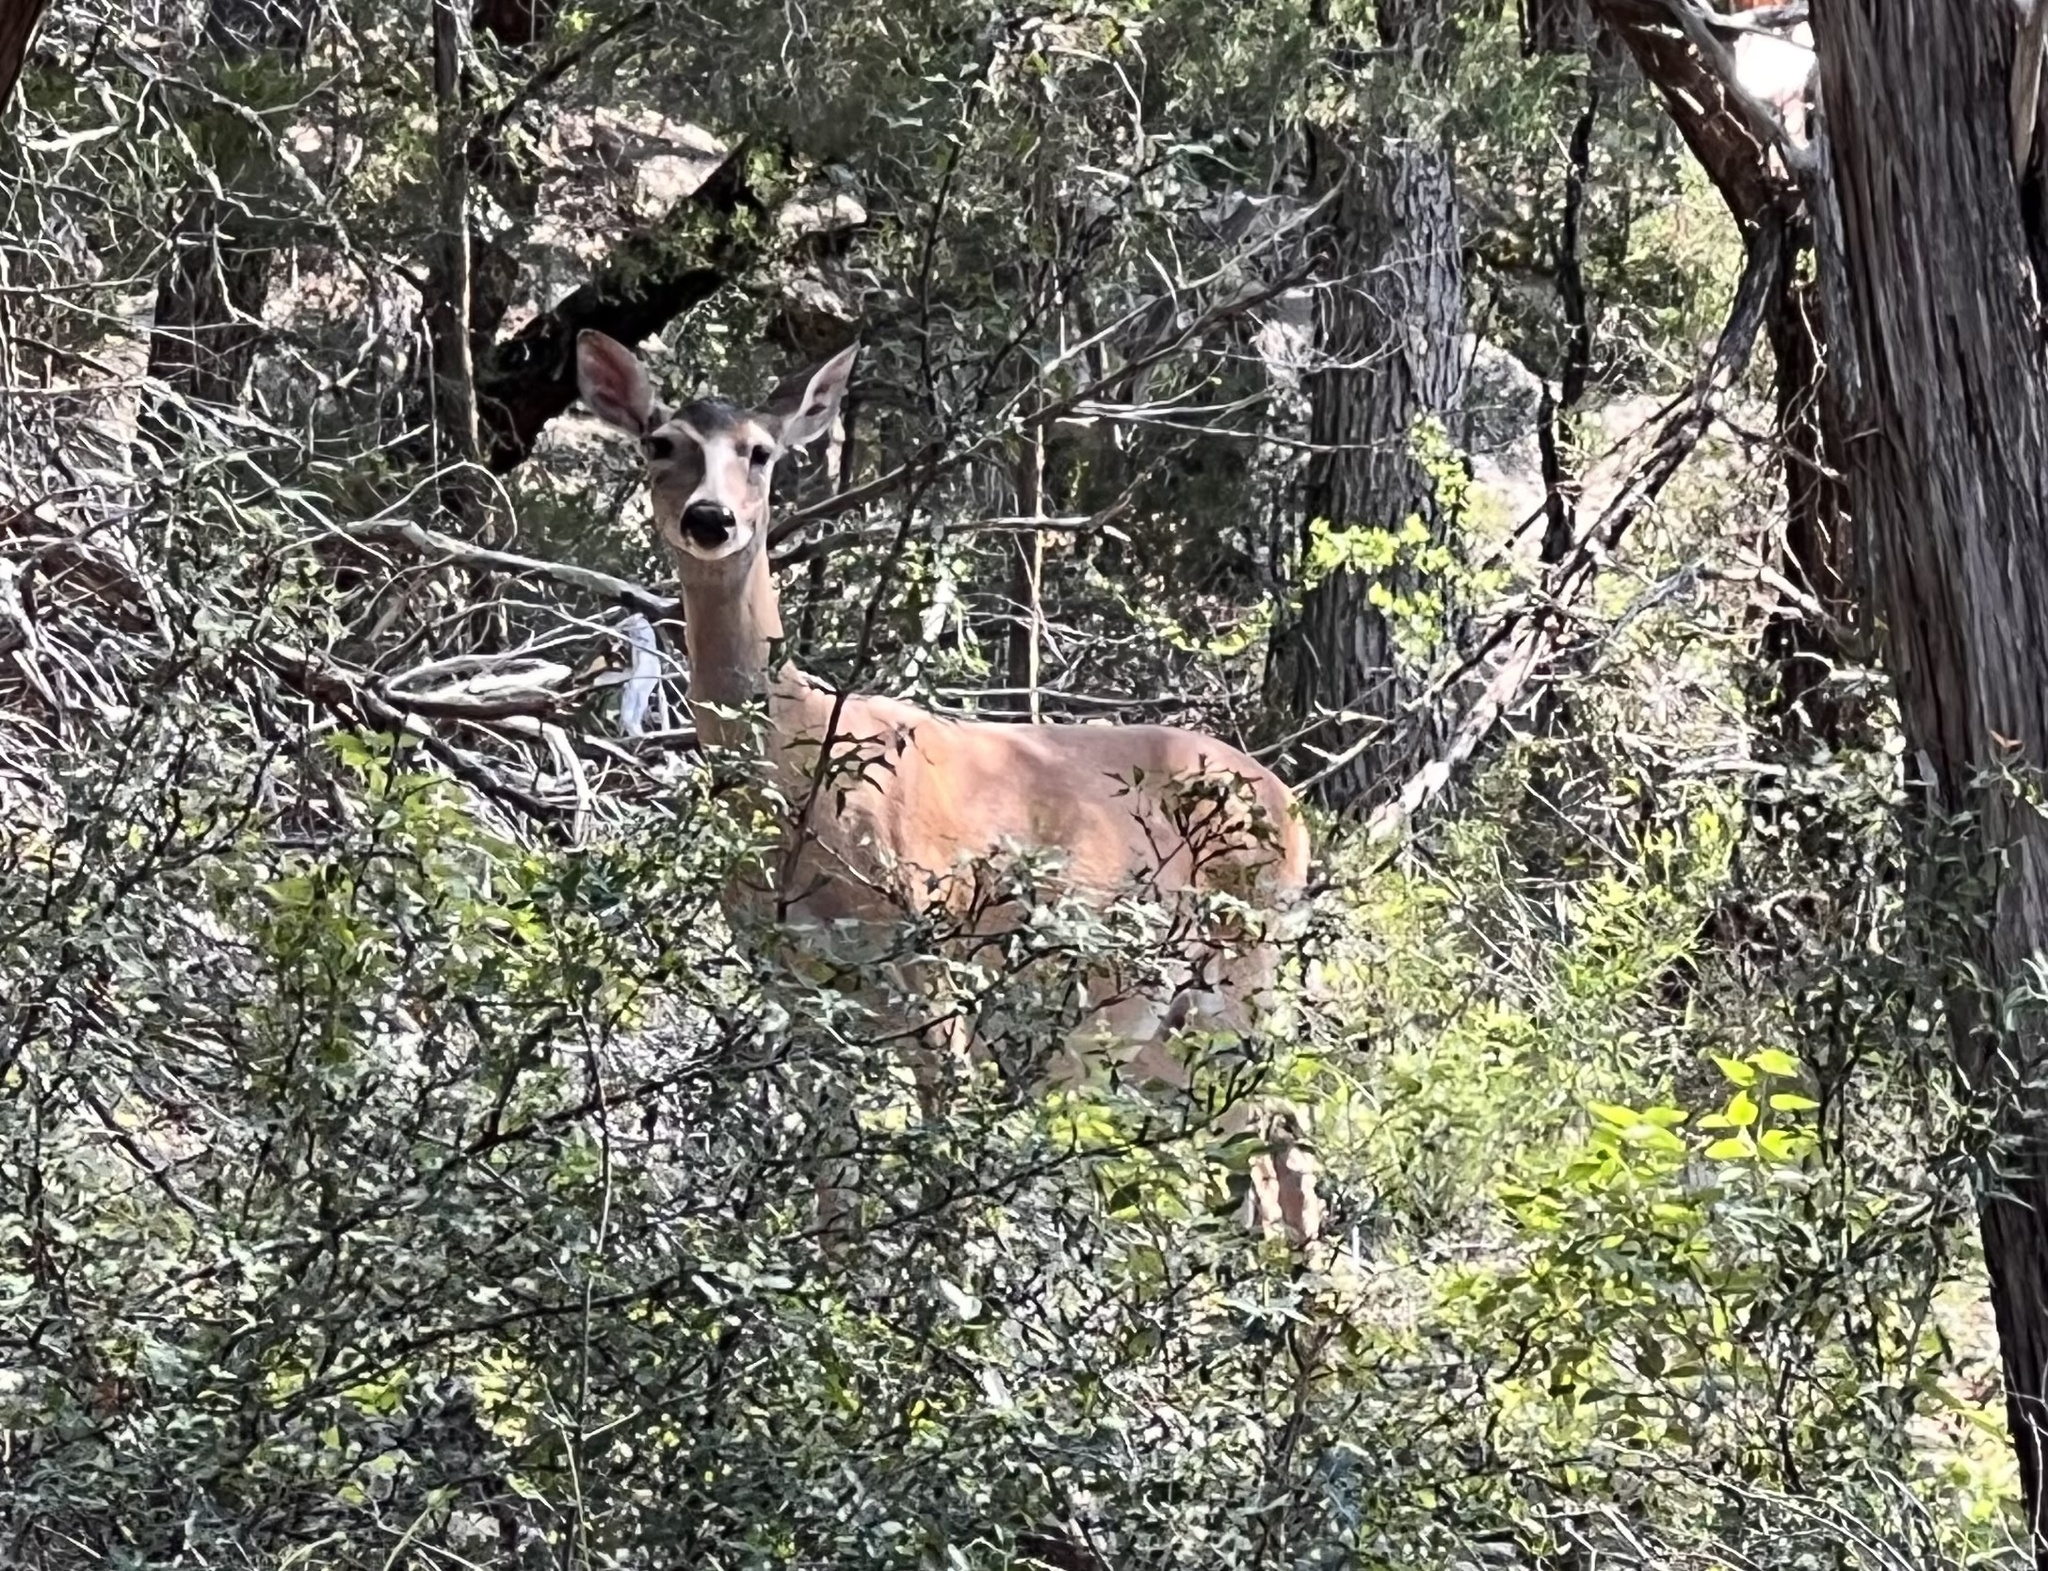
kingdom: Animalia
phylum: Chordata
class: Mammalia
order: Artiodactyla
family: Cervidae
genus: Odocoileus
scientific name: Odocoileus virginianus
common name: White-tailed deer
